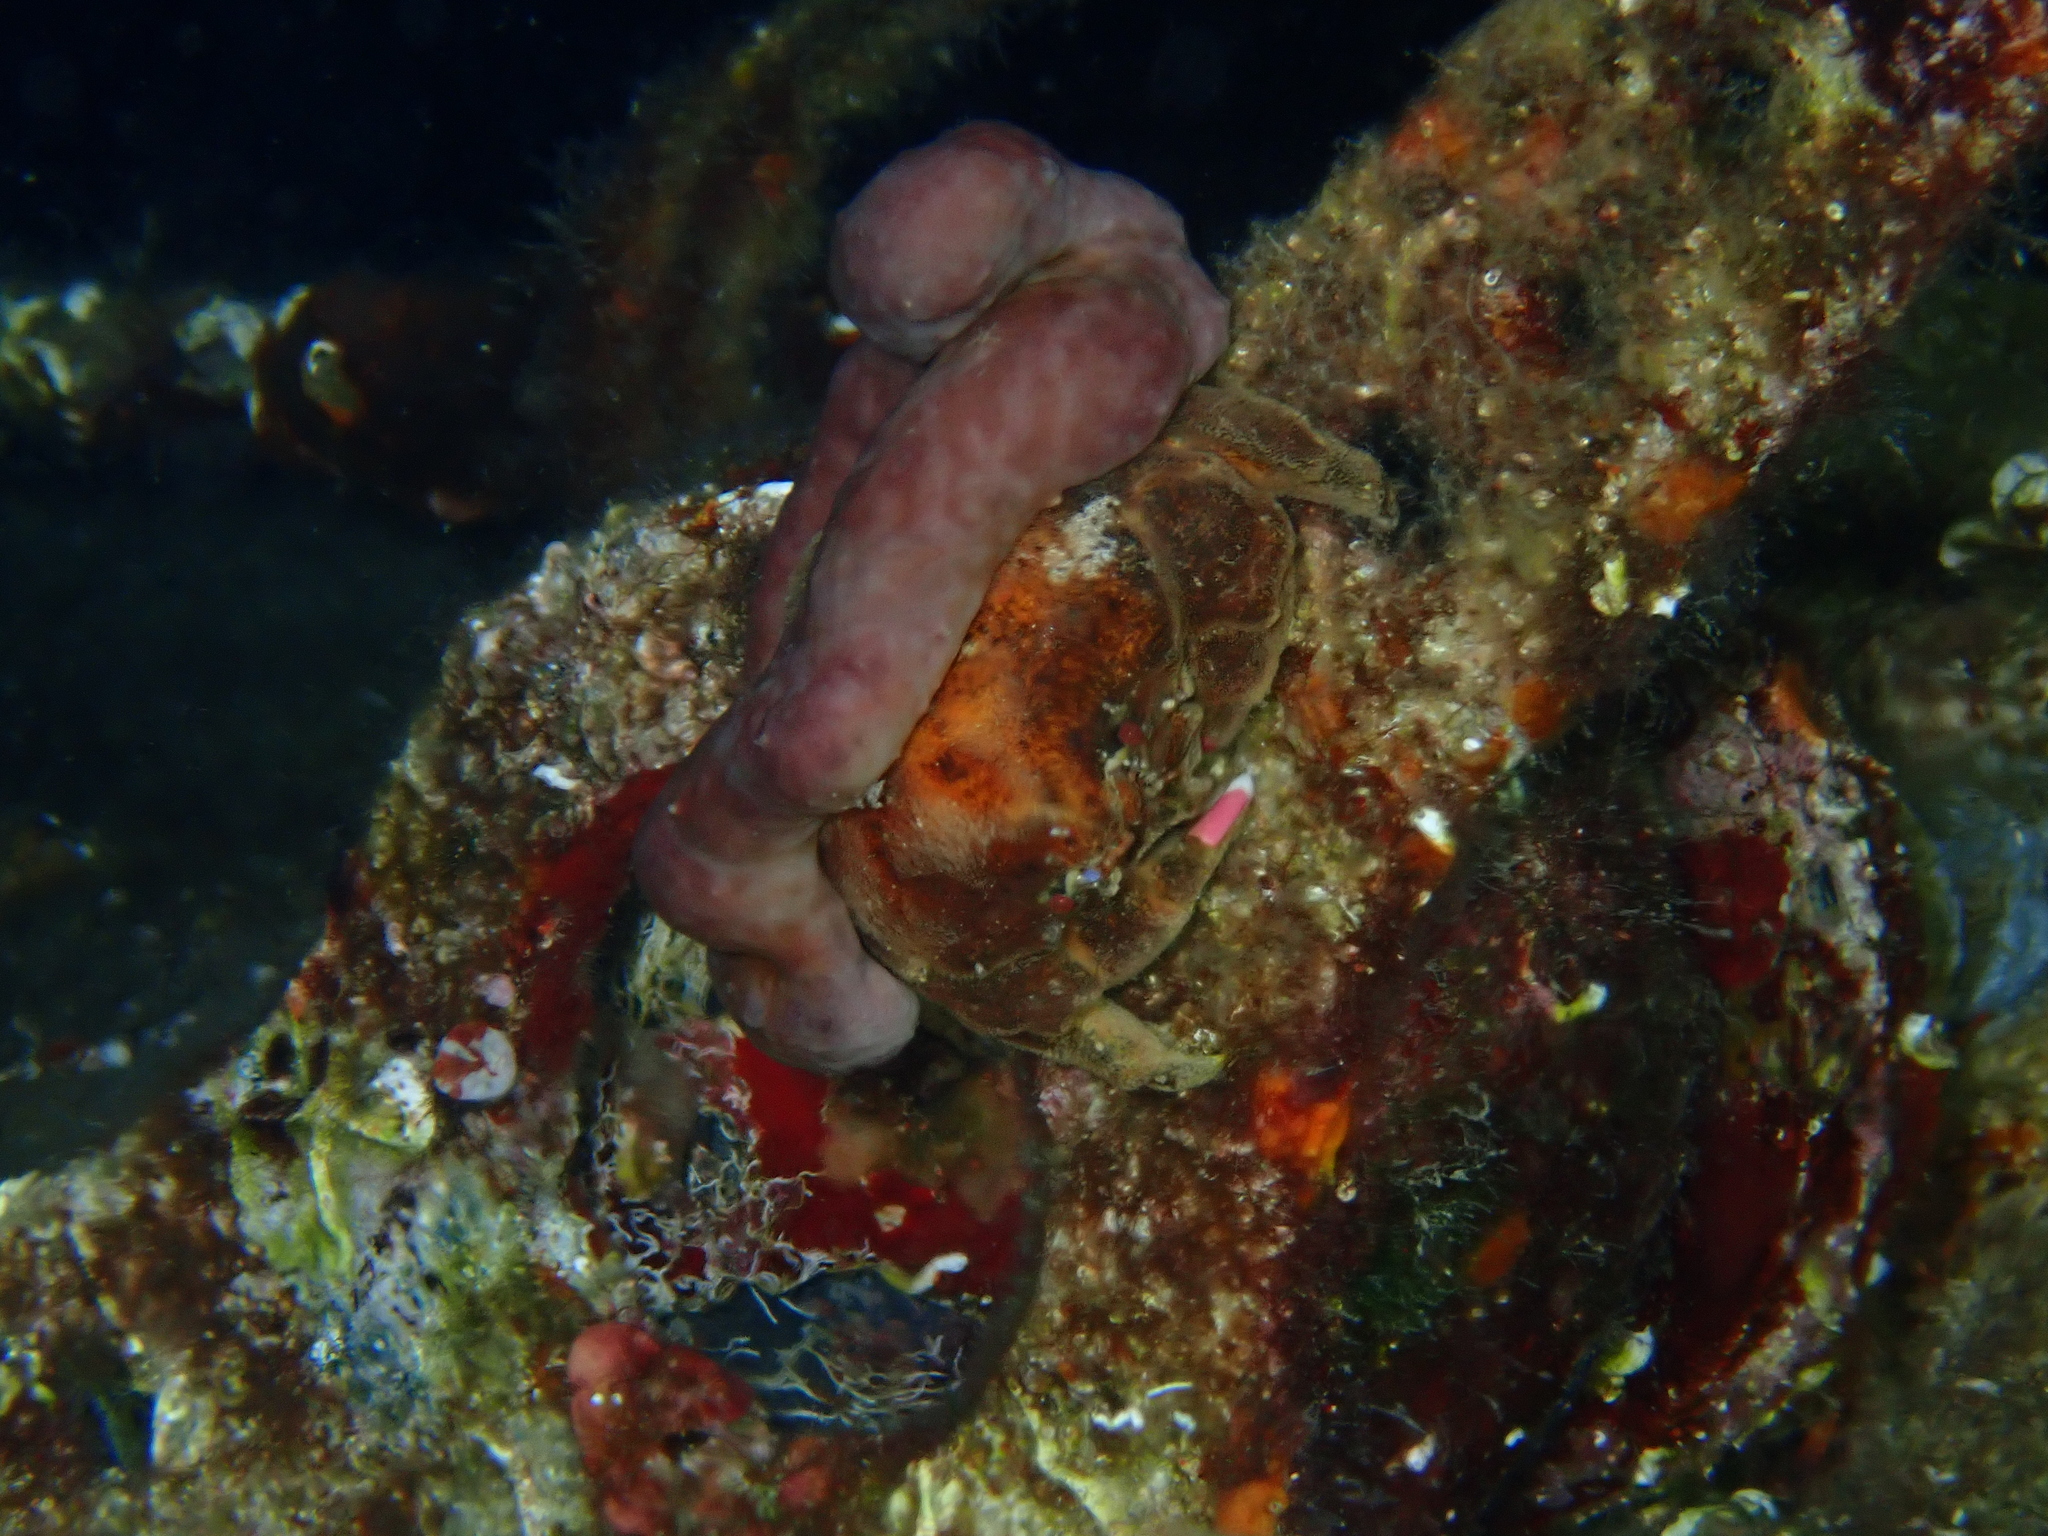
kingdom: Animalia
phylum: Porifera
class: Demospongiae
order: Chondrosiida
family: Chondrosiidae
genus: Chondrosia
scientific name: Chondrosia reniformis
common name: Chicken liver sponge
